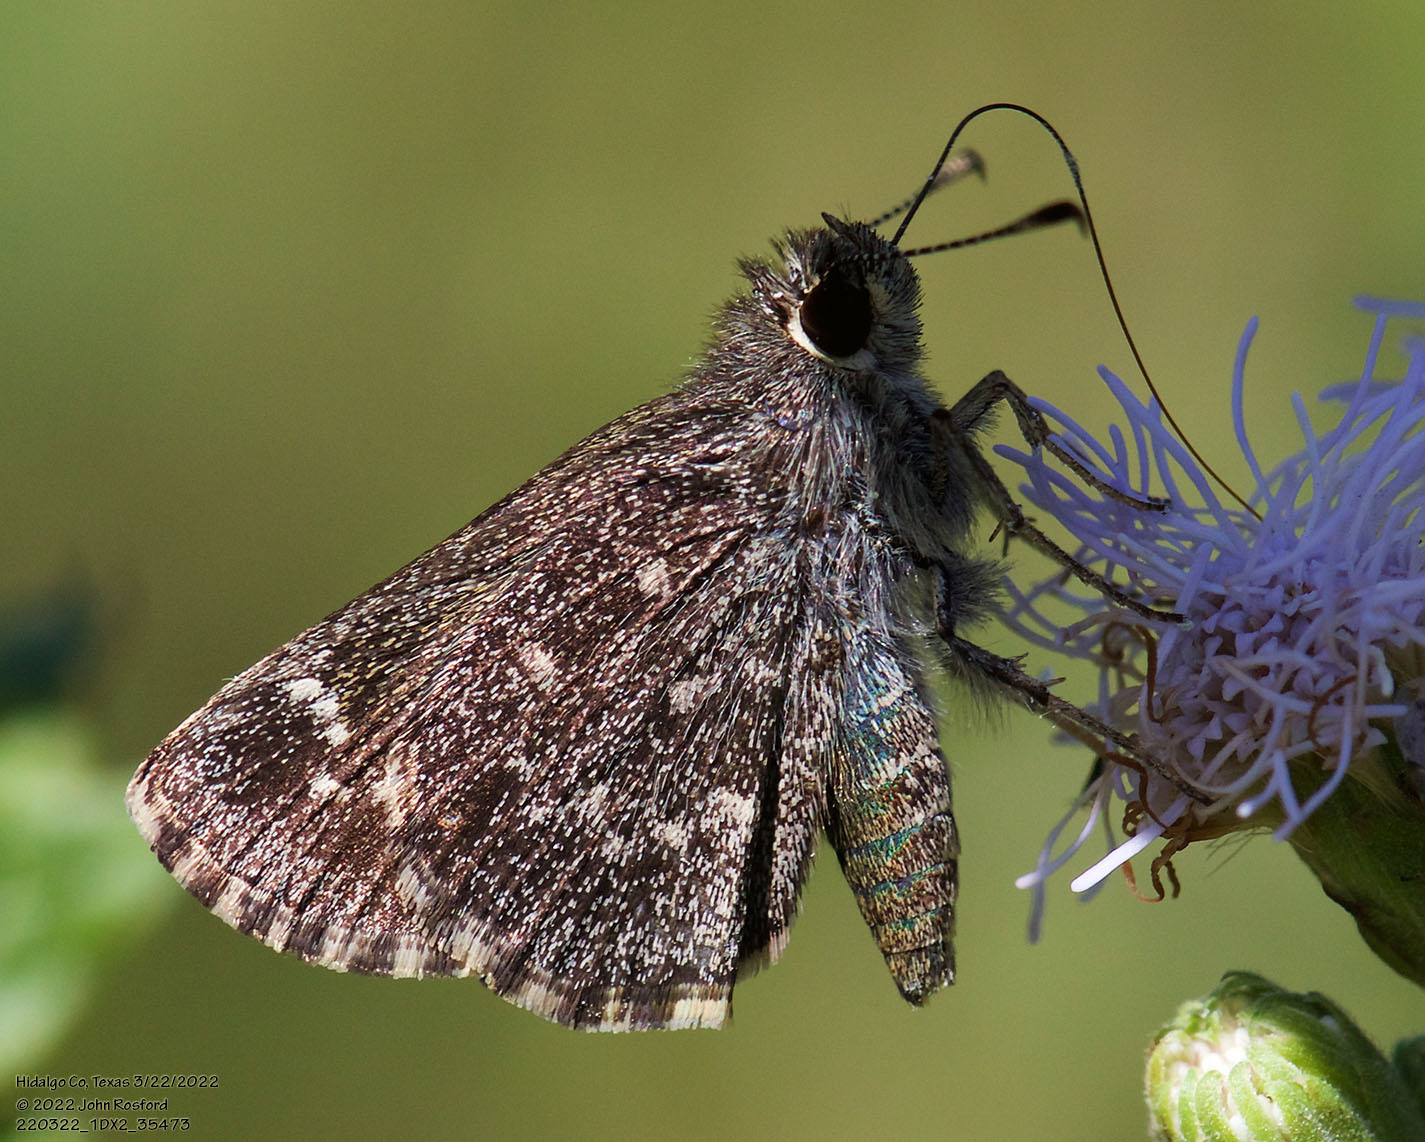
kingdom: Animalia
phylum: Arthropoda
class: Insecta
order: Lepidoptera
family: Hesperiidae
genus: Mastor
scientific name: Mastor celia
